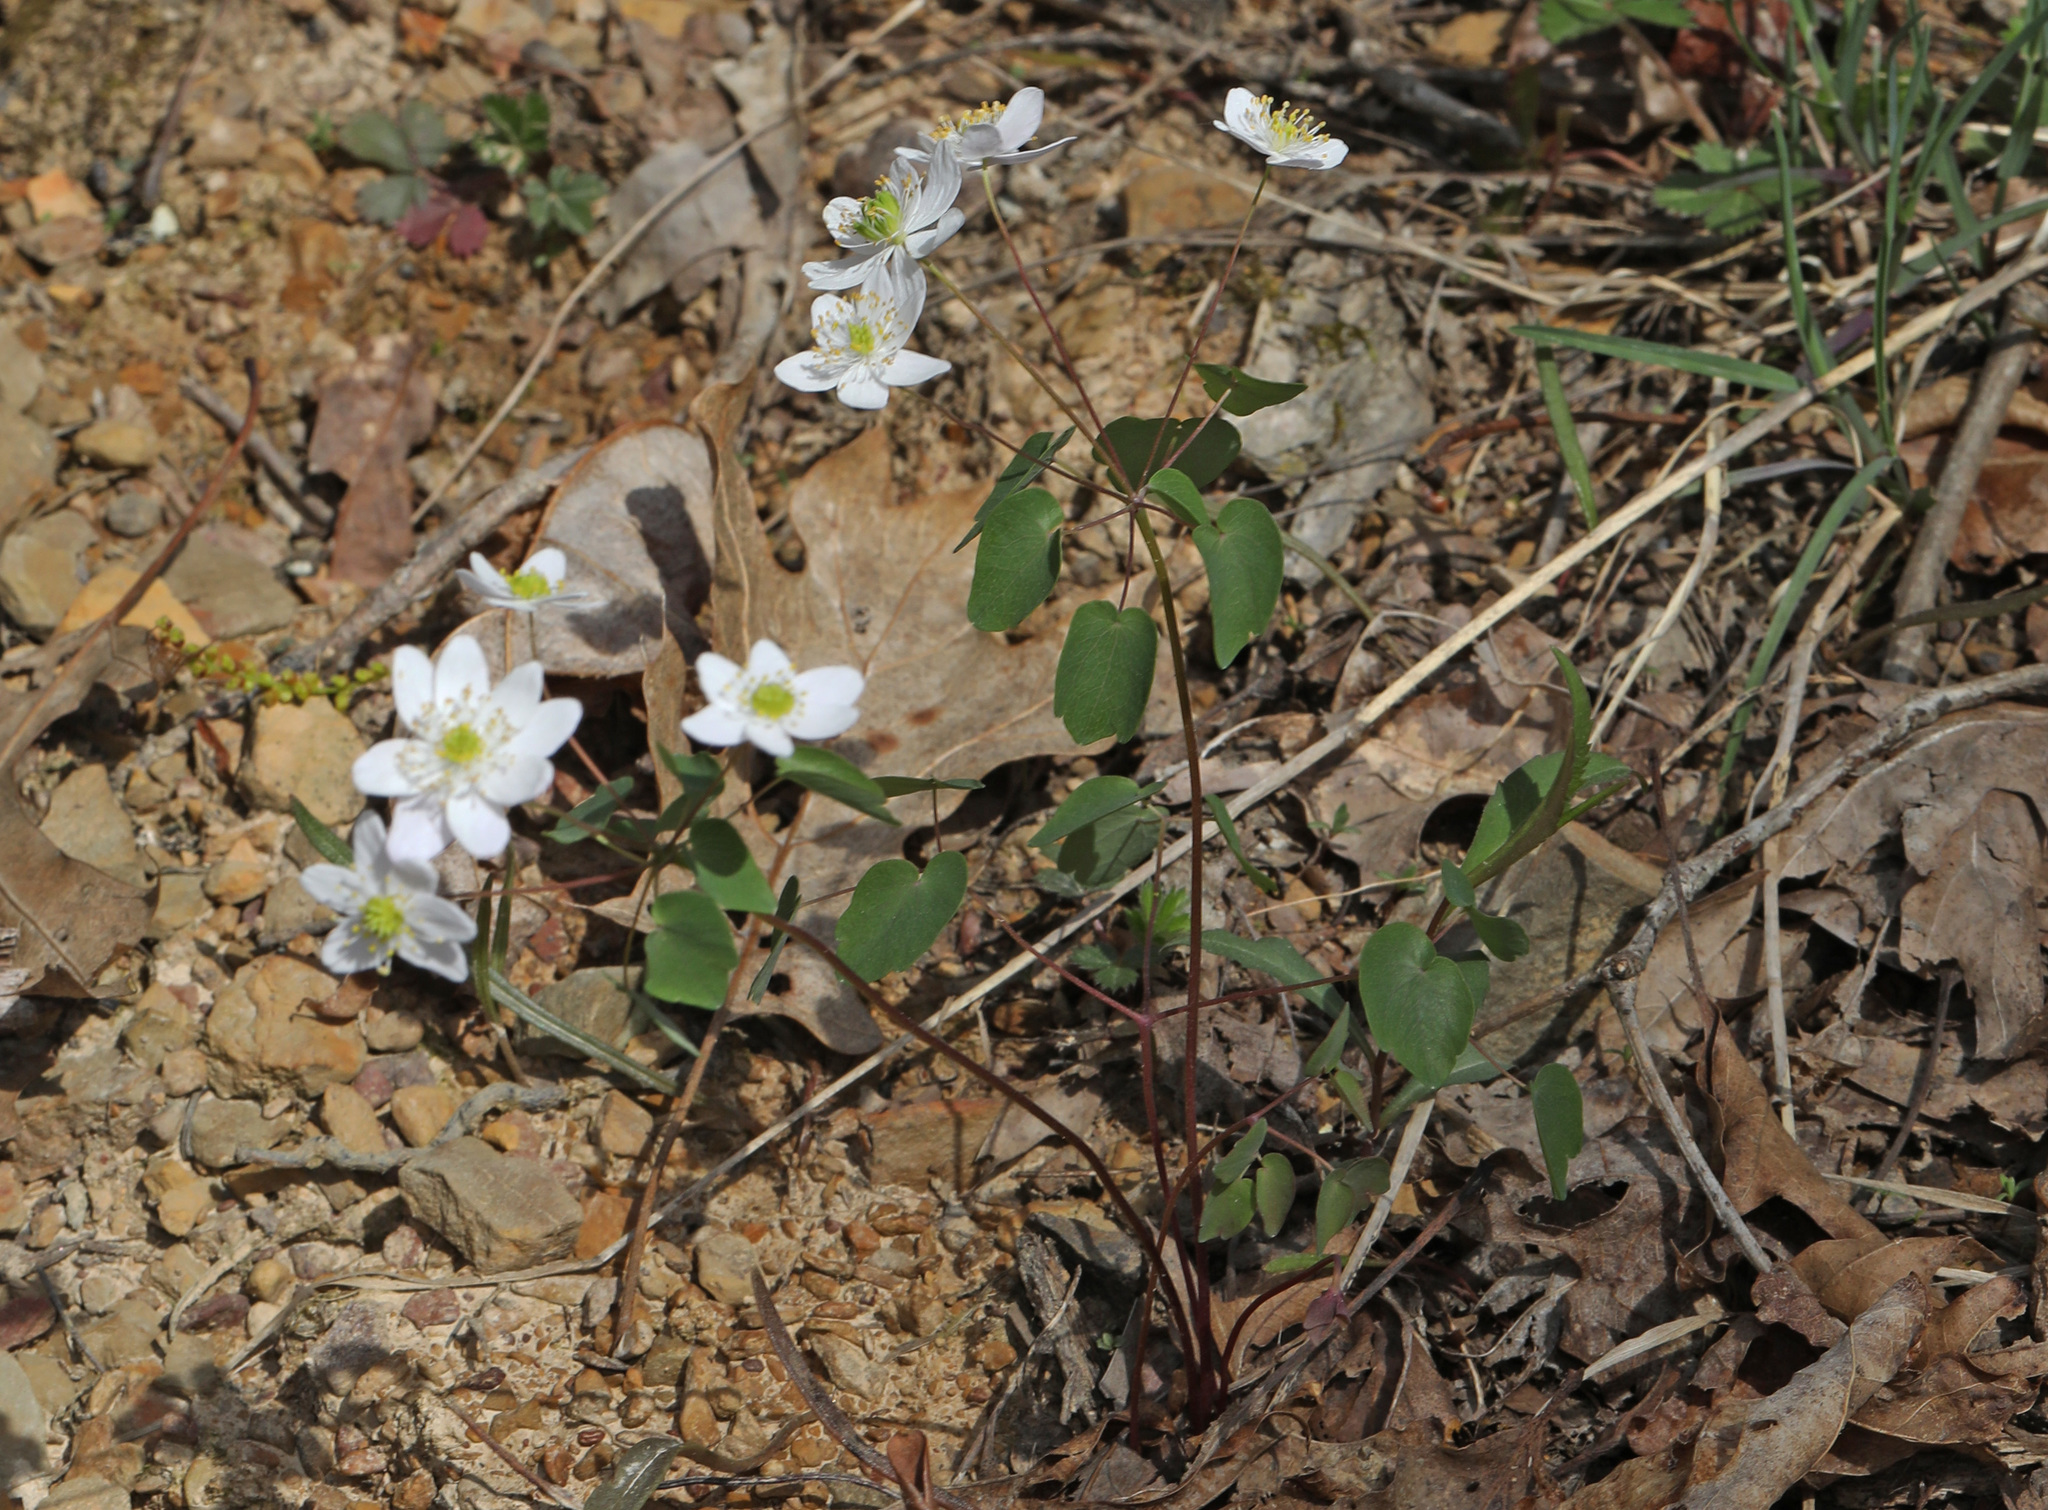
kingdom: Plantae
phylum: Tracheophyta
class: Magnoliopsida
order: Ranunculales
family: Ranunculaceae
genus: Thalictrum
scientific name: Thalictrum thalictroides
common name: Rue-anemone
